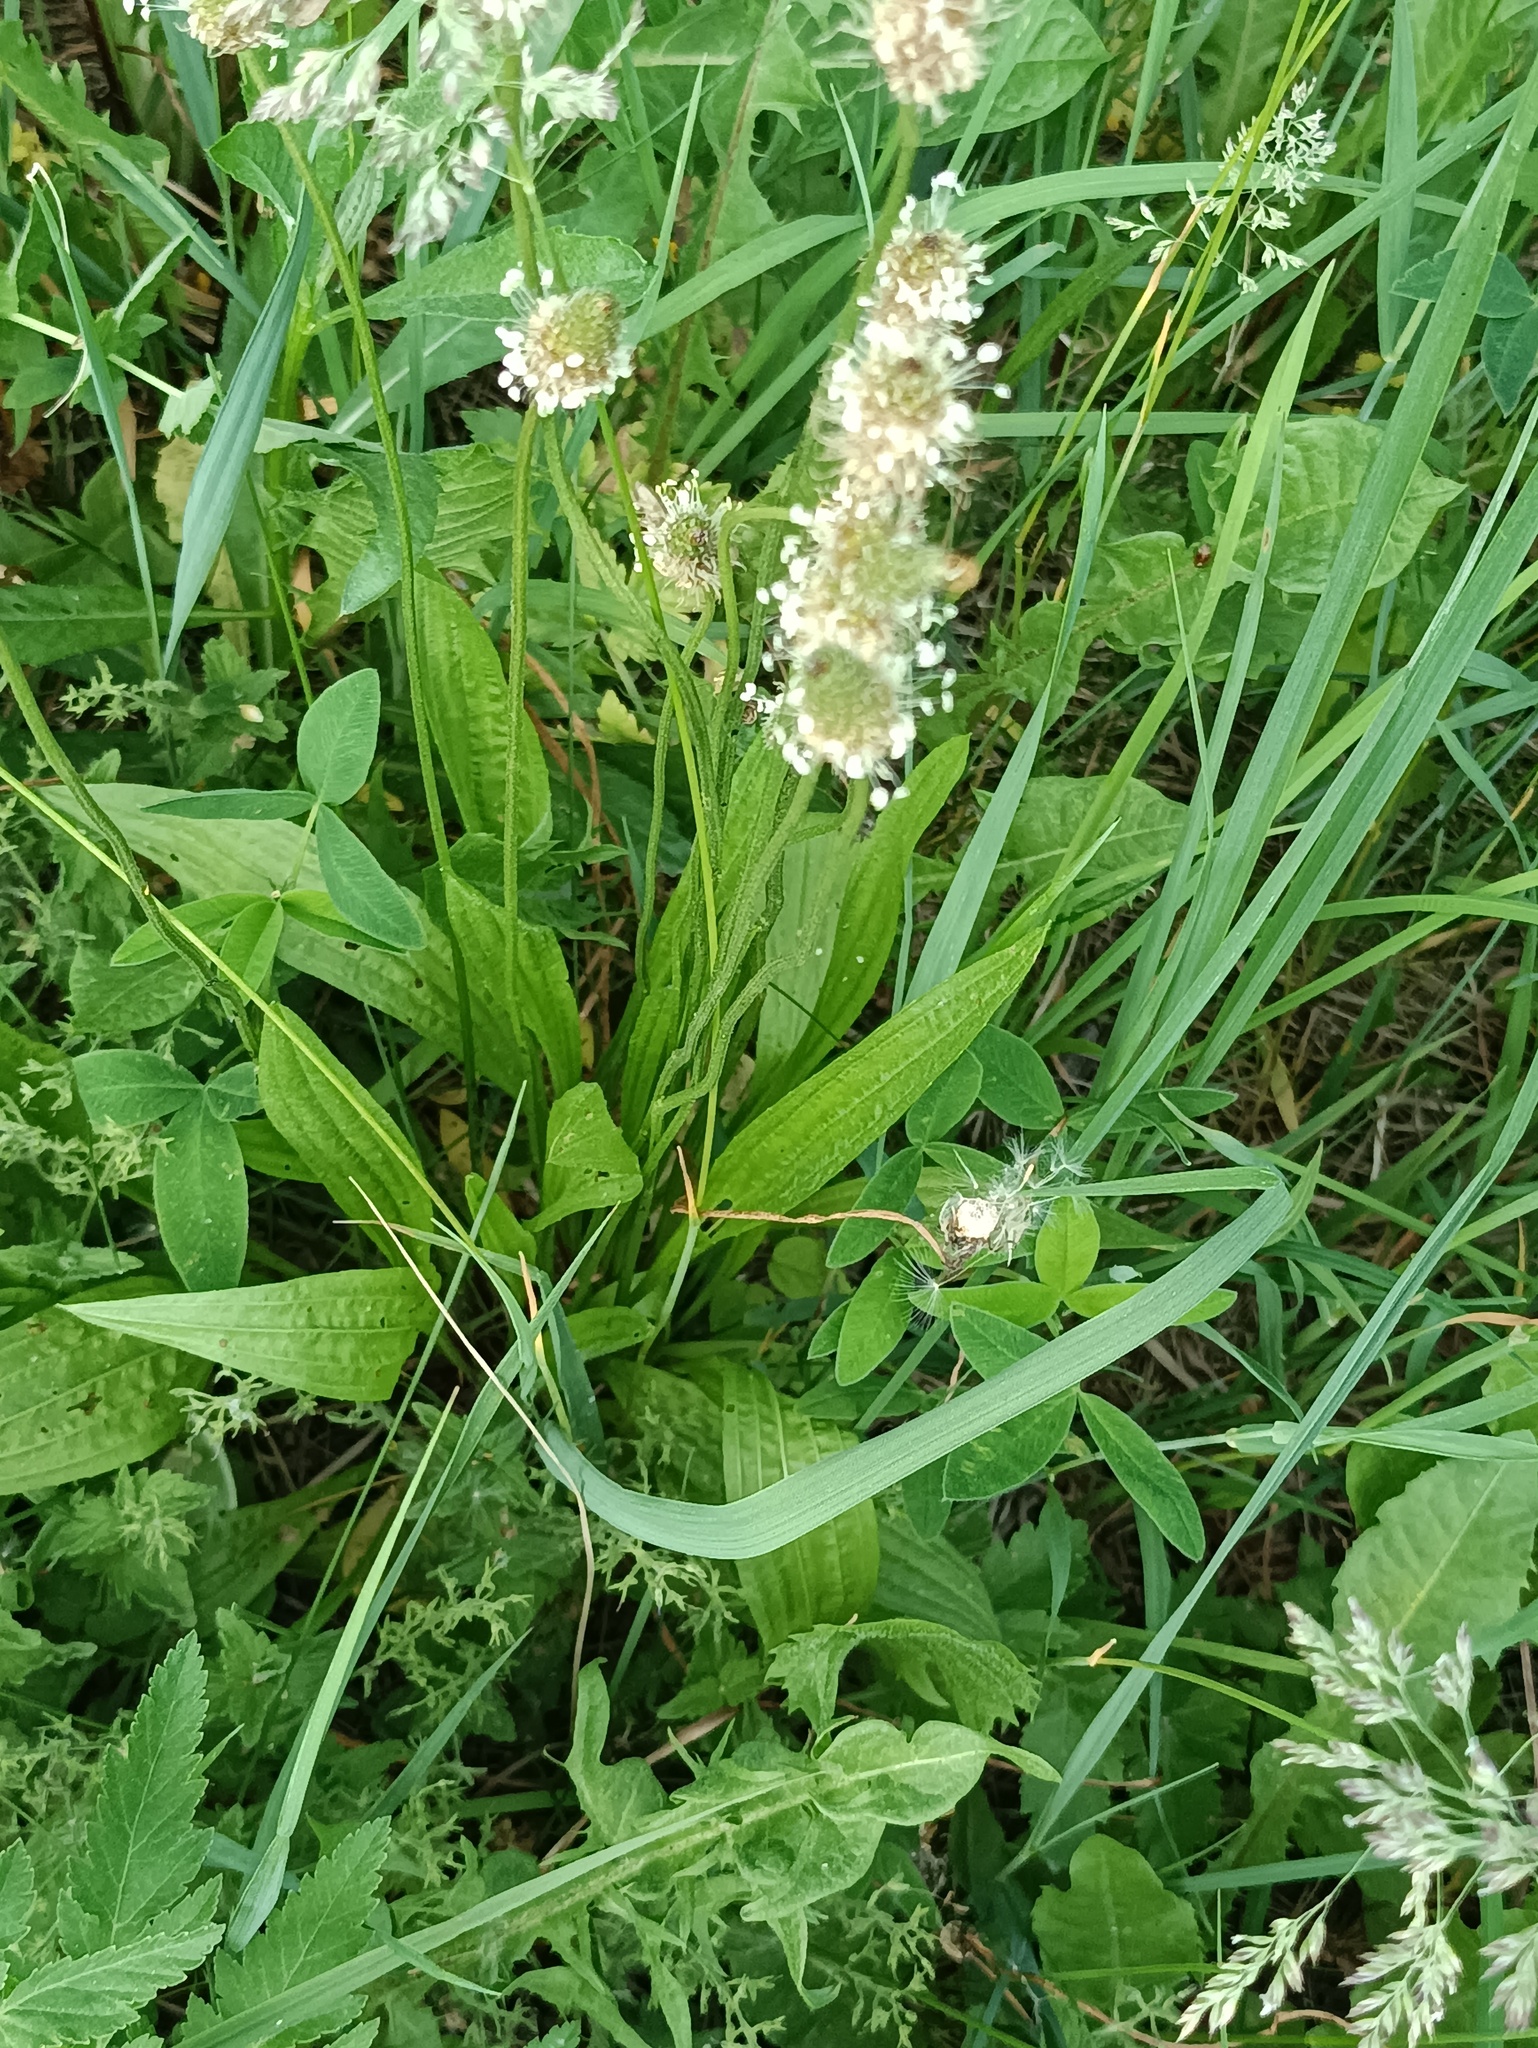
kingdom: Plantae
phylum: Tracheophyta
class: Magnoliopsida
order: Lamiales
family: Plantaginaceae
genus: Plantago
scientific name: Plantago lanceolata
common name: Ribwort plantain
